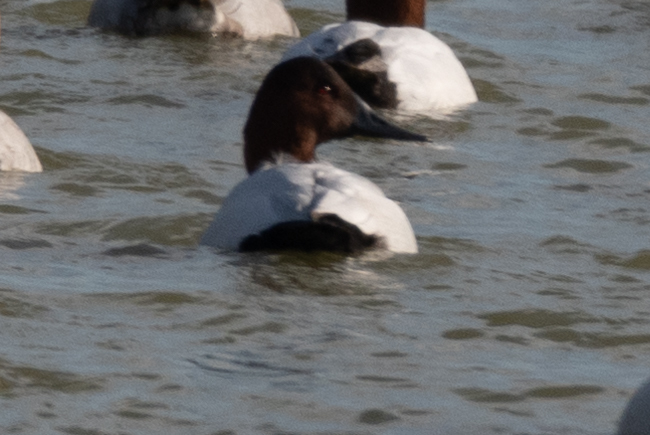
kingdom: Animalia
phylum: Chordata
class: Aves
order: Anseriformes
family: Anatidae
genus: Aythya
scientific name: Aythya valisineria
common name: Canvasback
